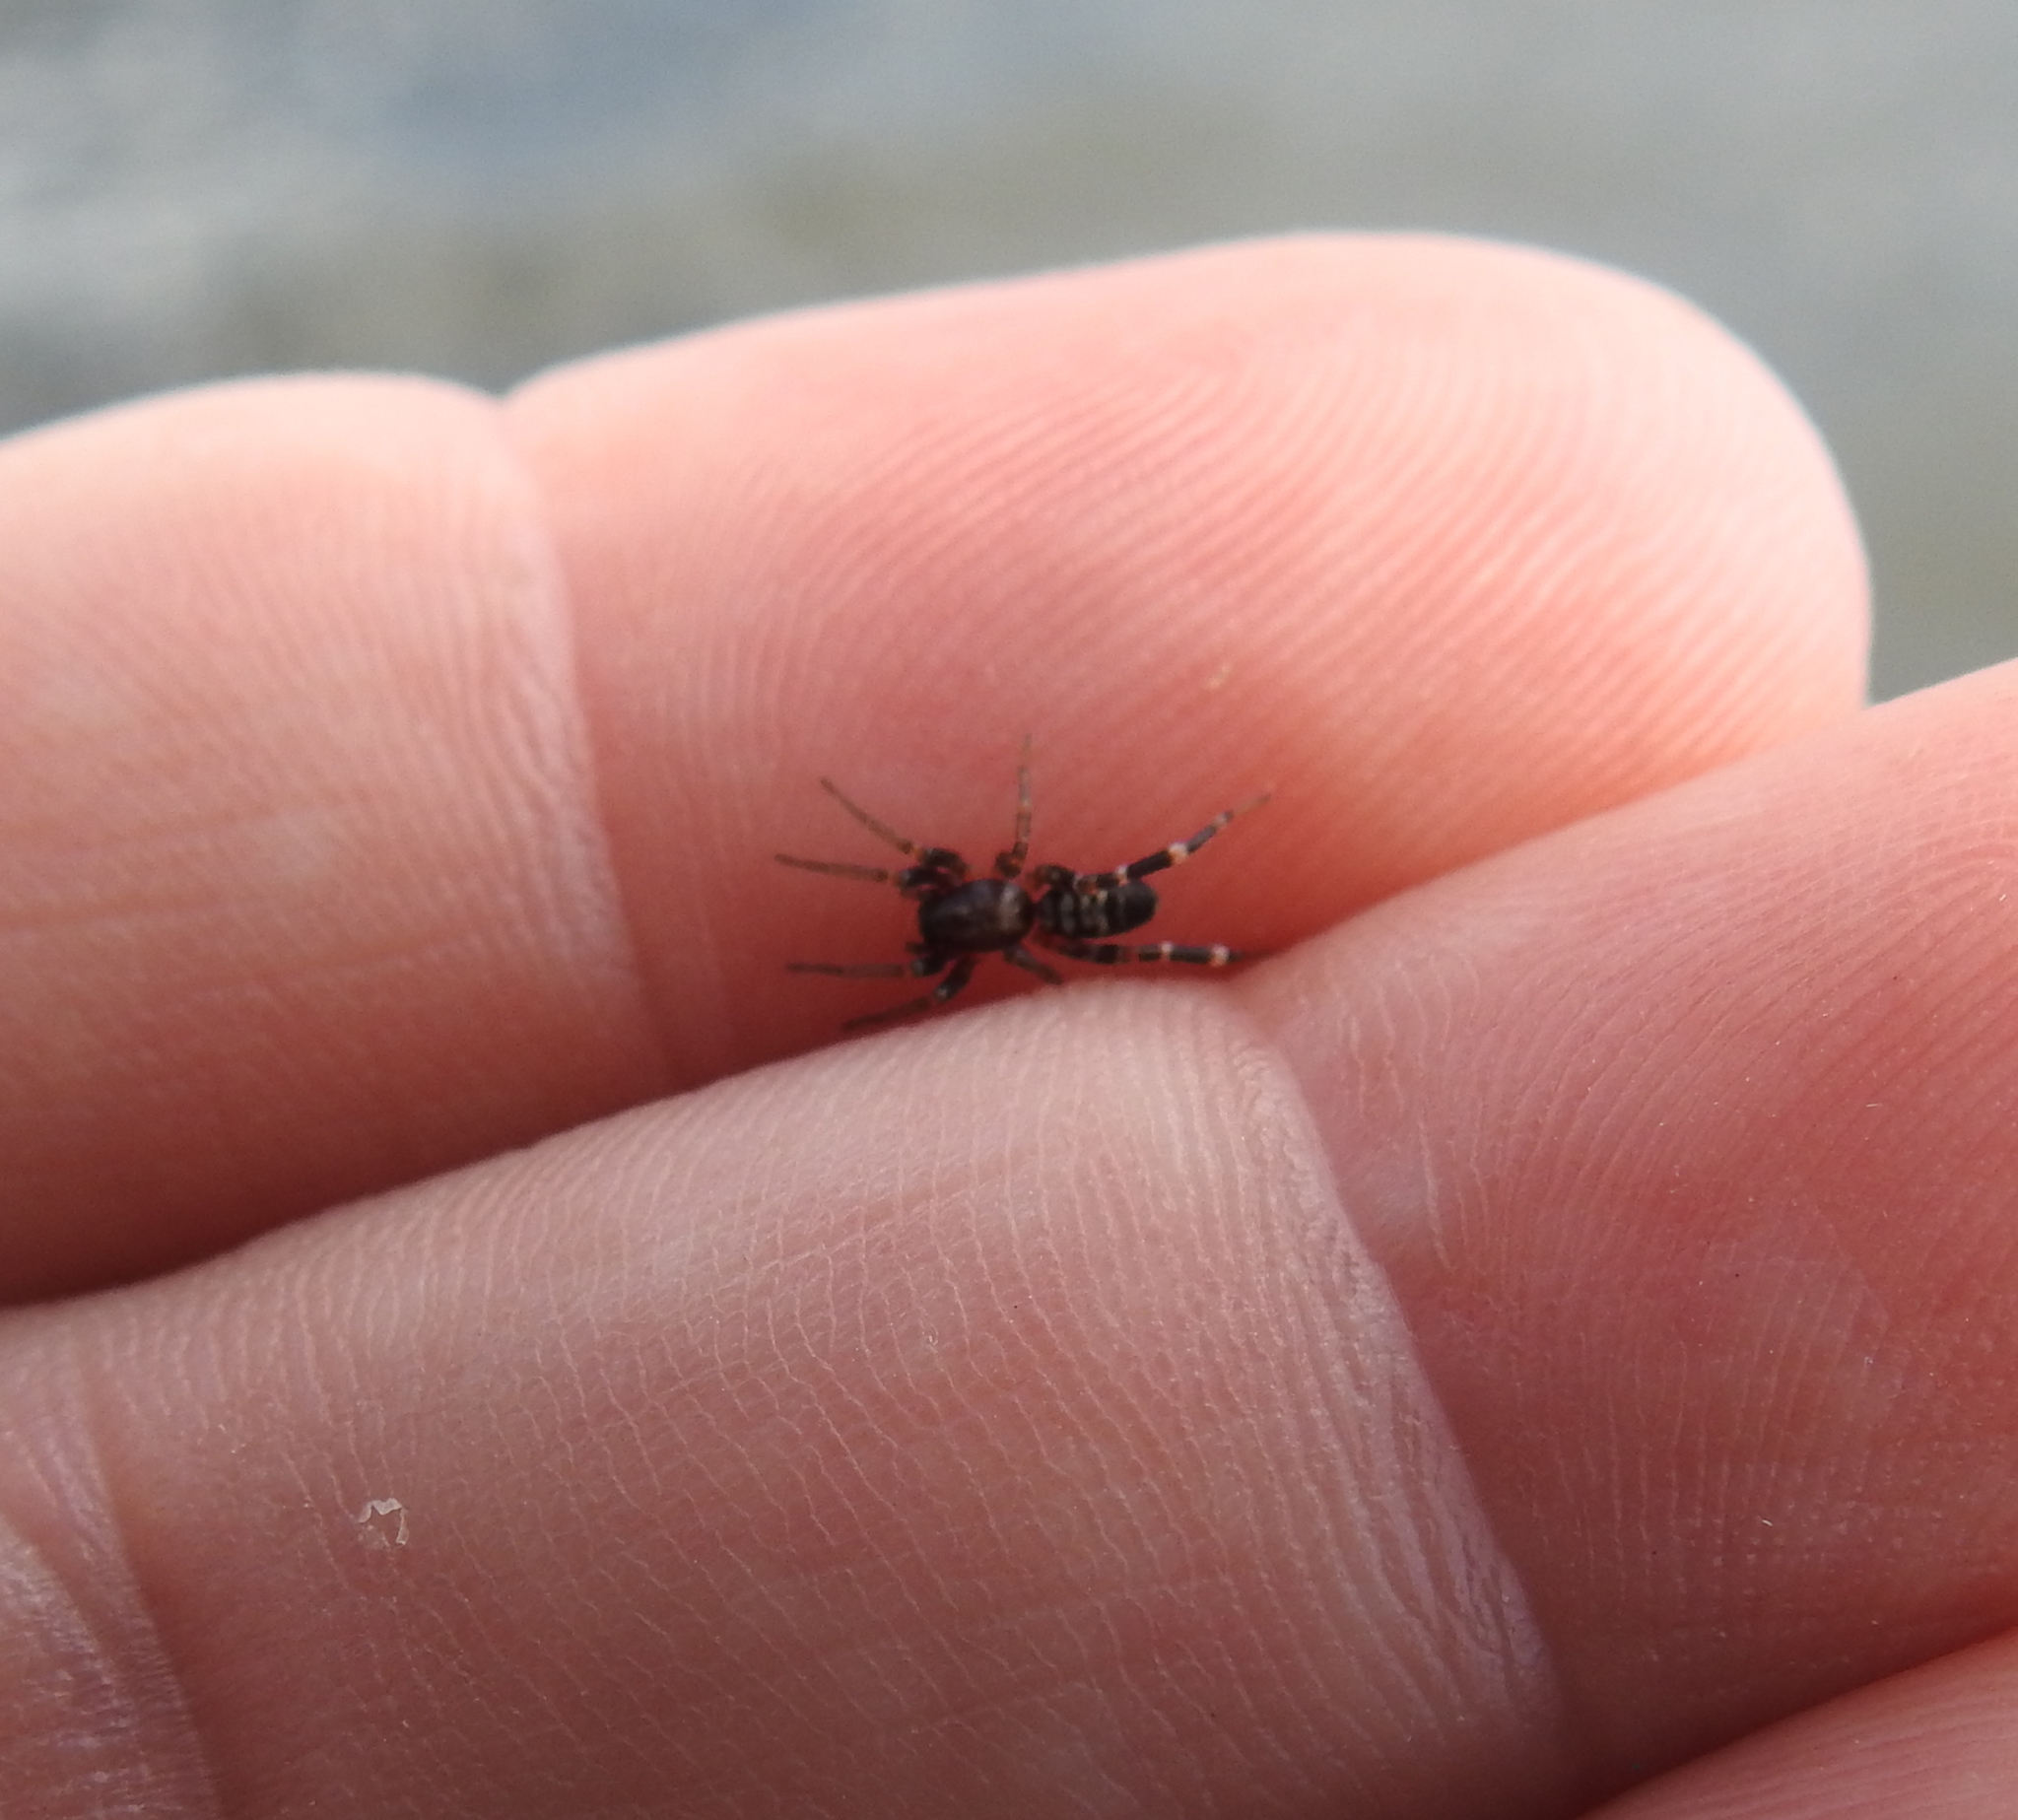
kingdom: Animalia
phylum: Arthropoda
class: Arachnida
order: Araneae
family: Corinnidae
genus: Castianeira
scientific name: Castianeira longipalpa
